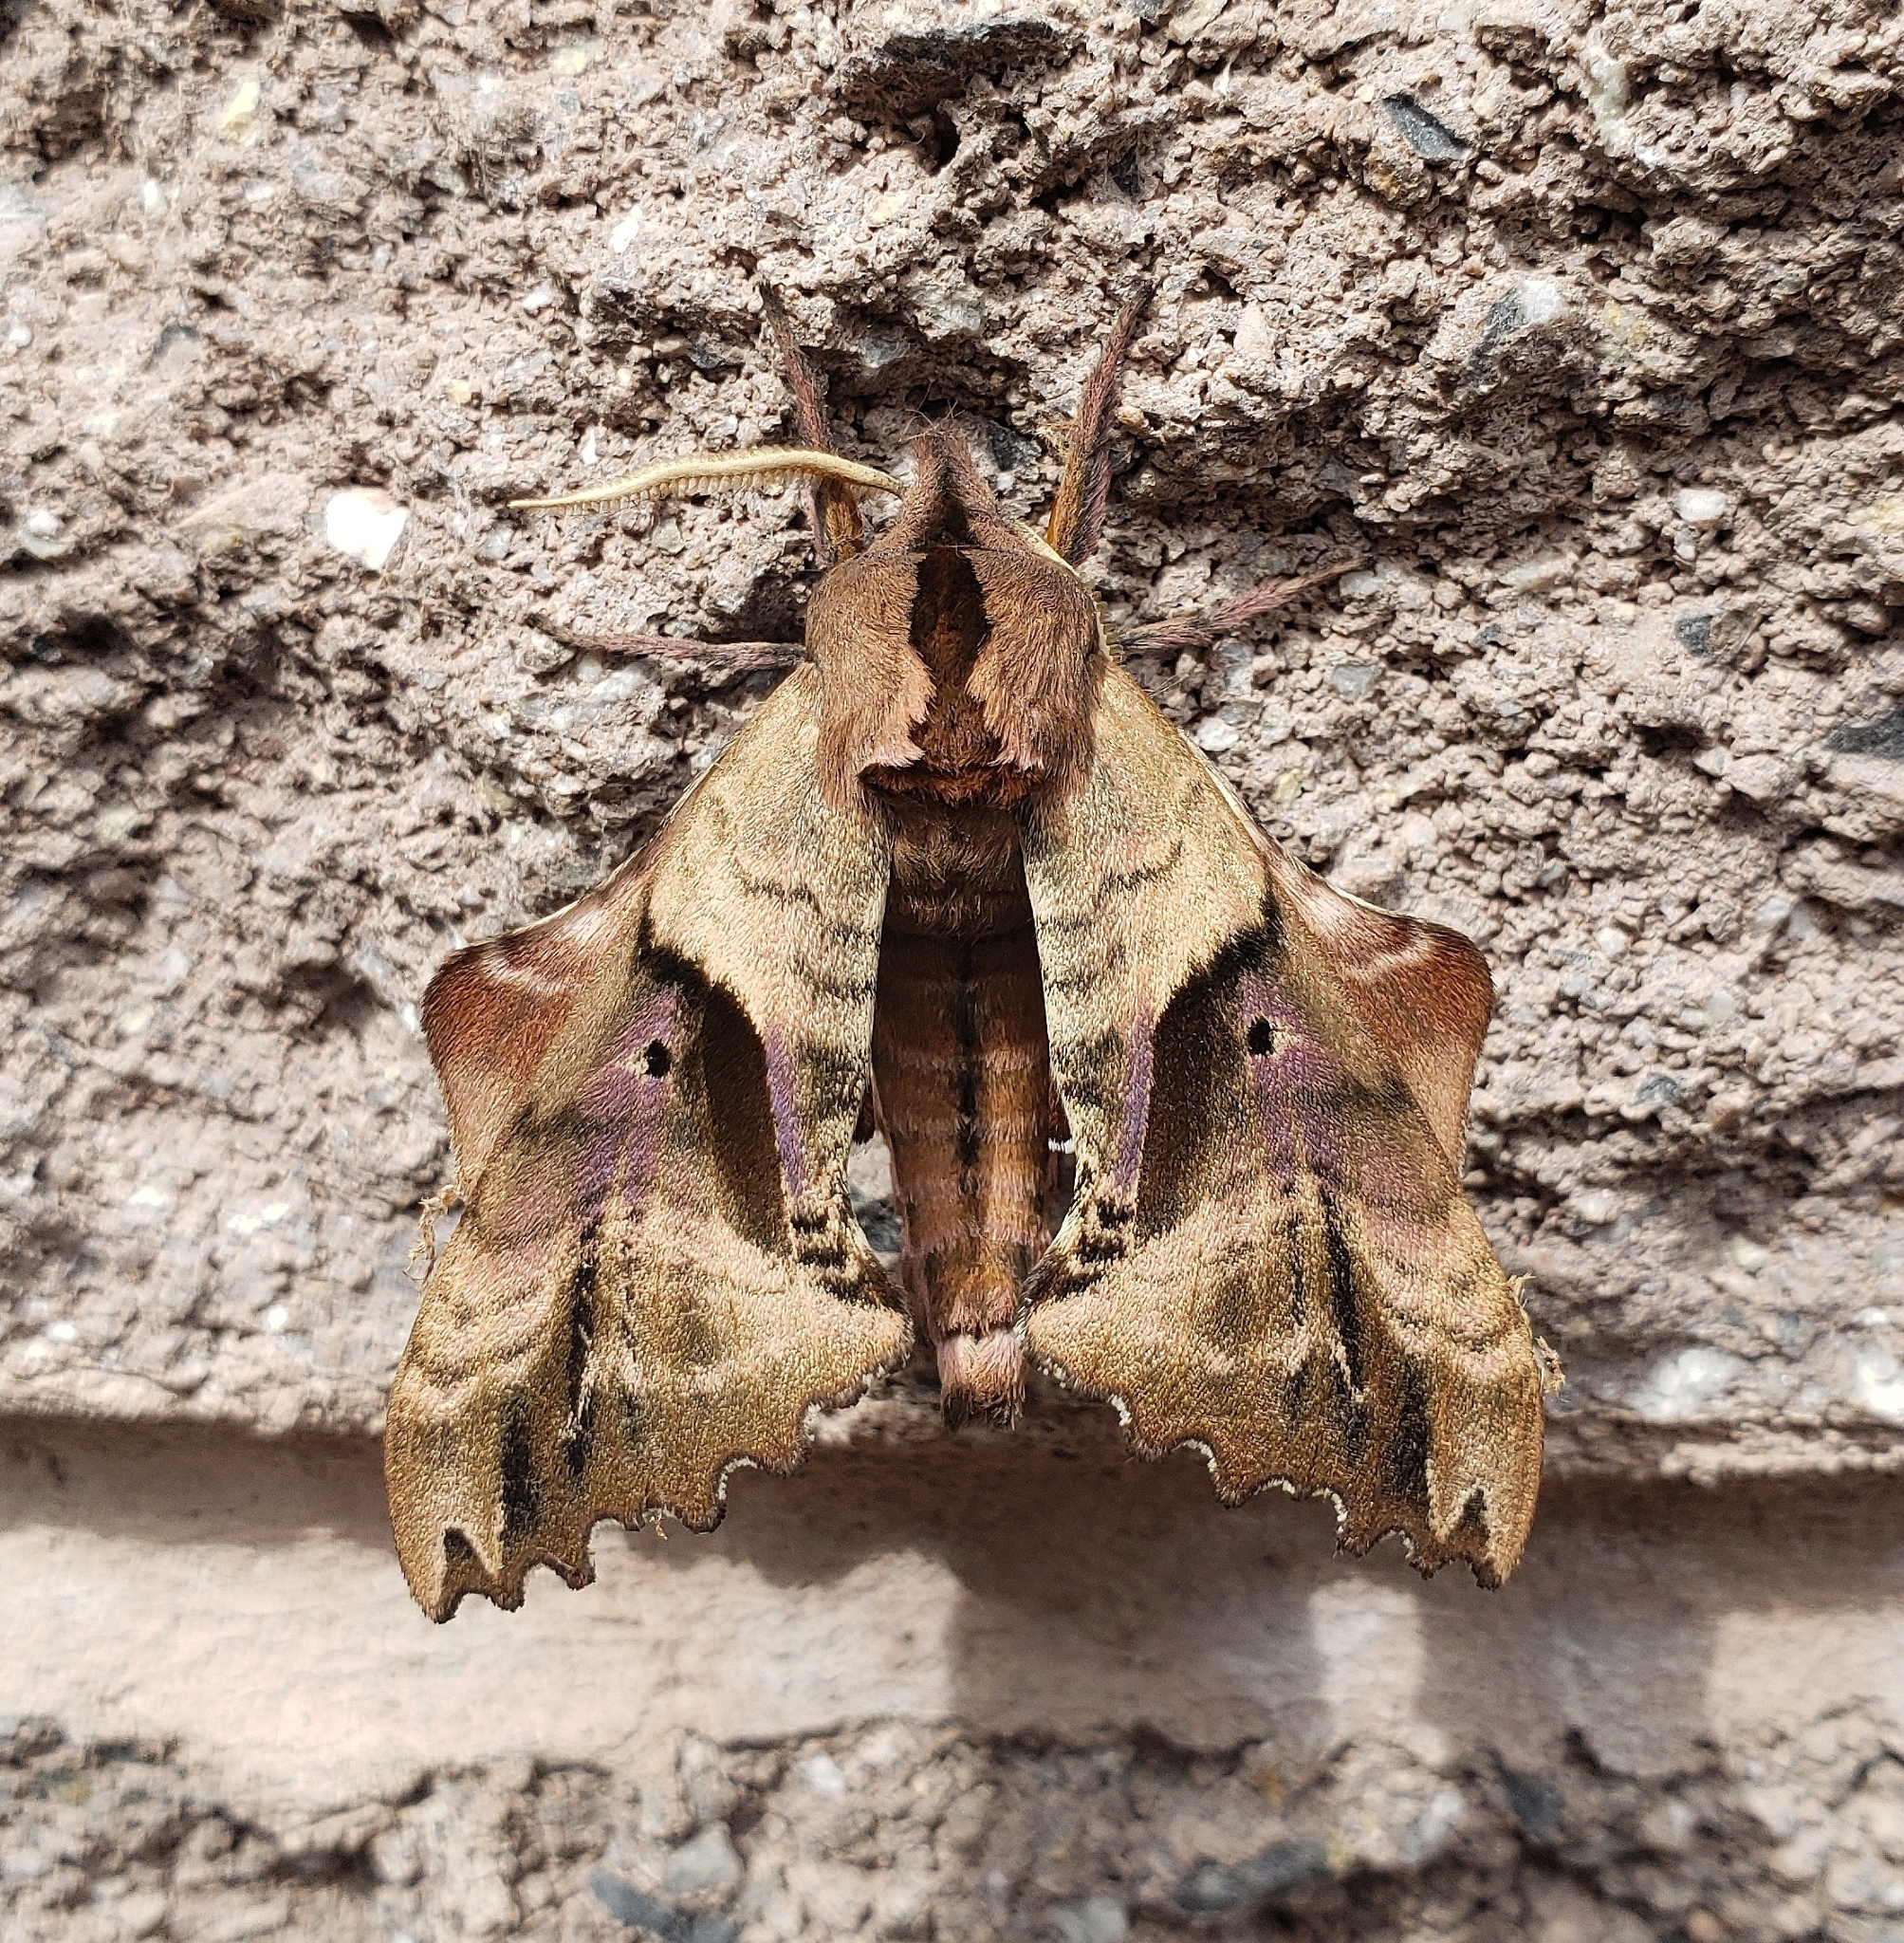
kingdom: Animalia
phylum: Arthropoda
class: Insecta
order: Lepidoptera
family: Sphingidae
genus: Paonias
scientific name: Paonias excaecata
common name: Blind-eyed sphinx
